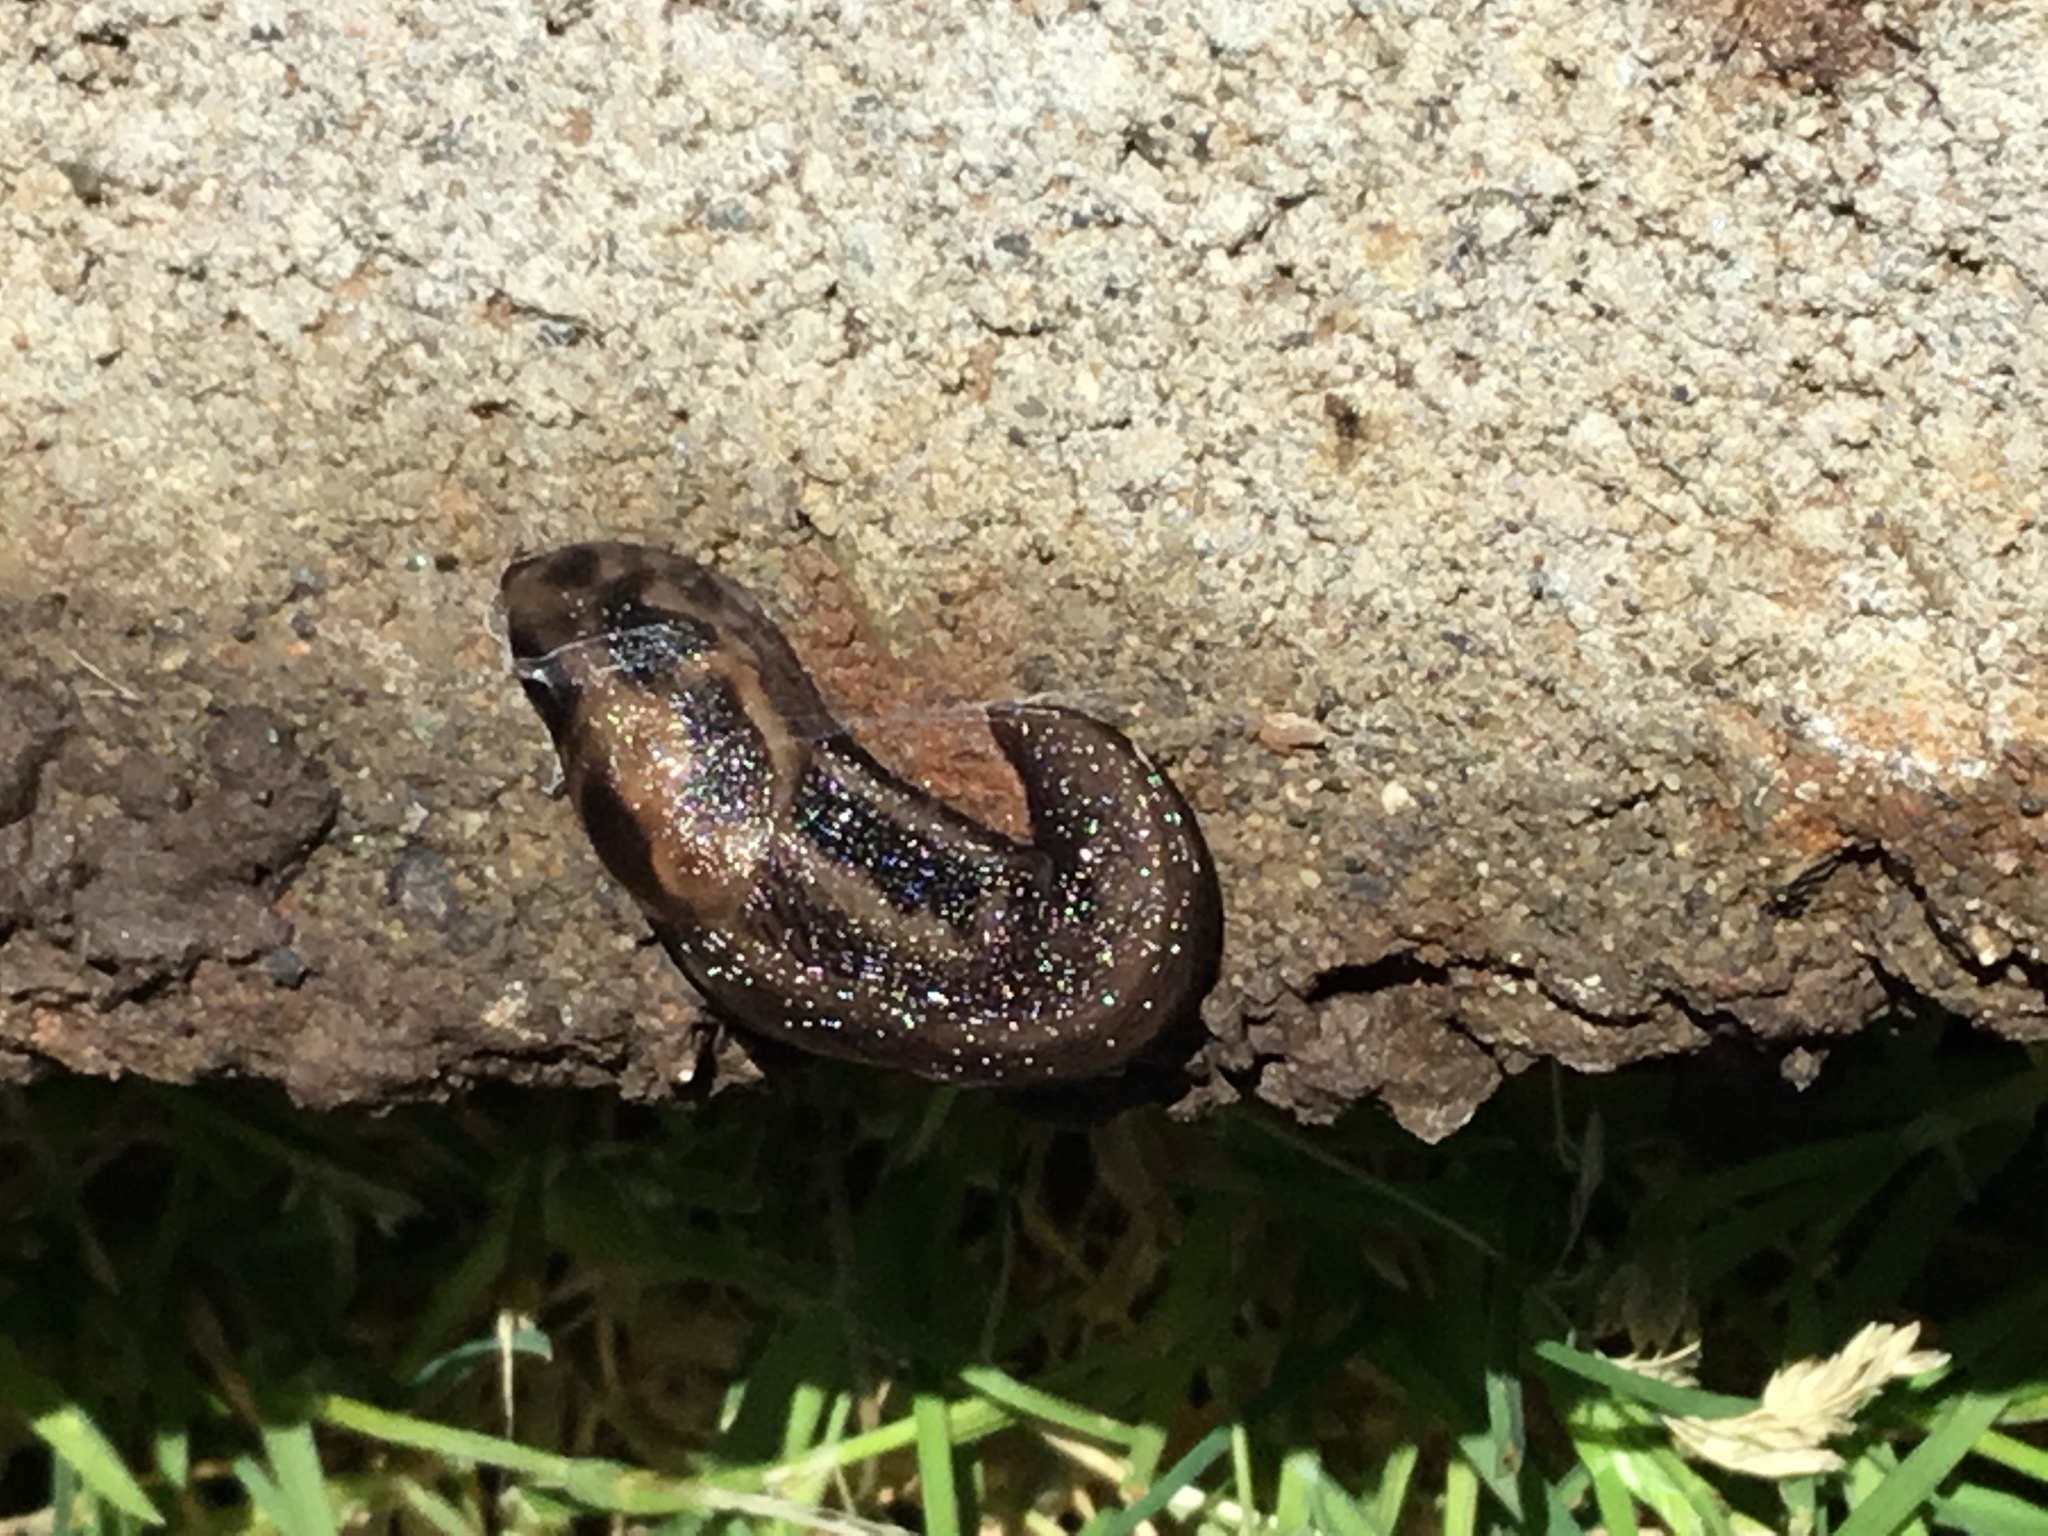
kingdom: Animalia
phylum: Mollusca
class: Gastropoda
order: Stylommatophora
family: Limacidae
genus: Limax
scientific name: Limax maximus
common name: Great grey slug
